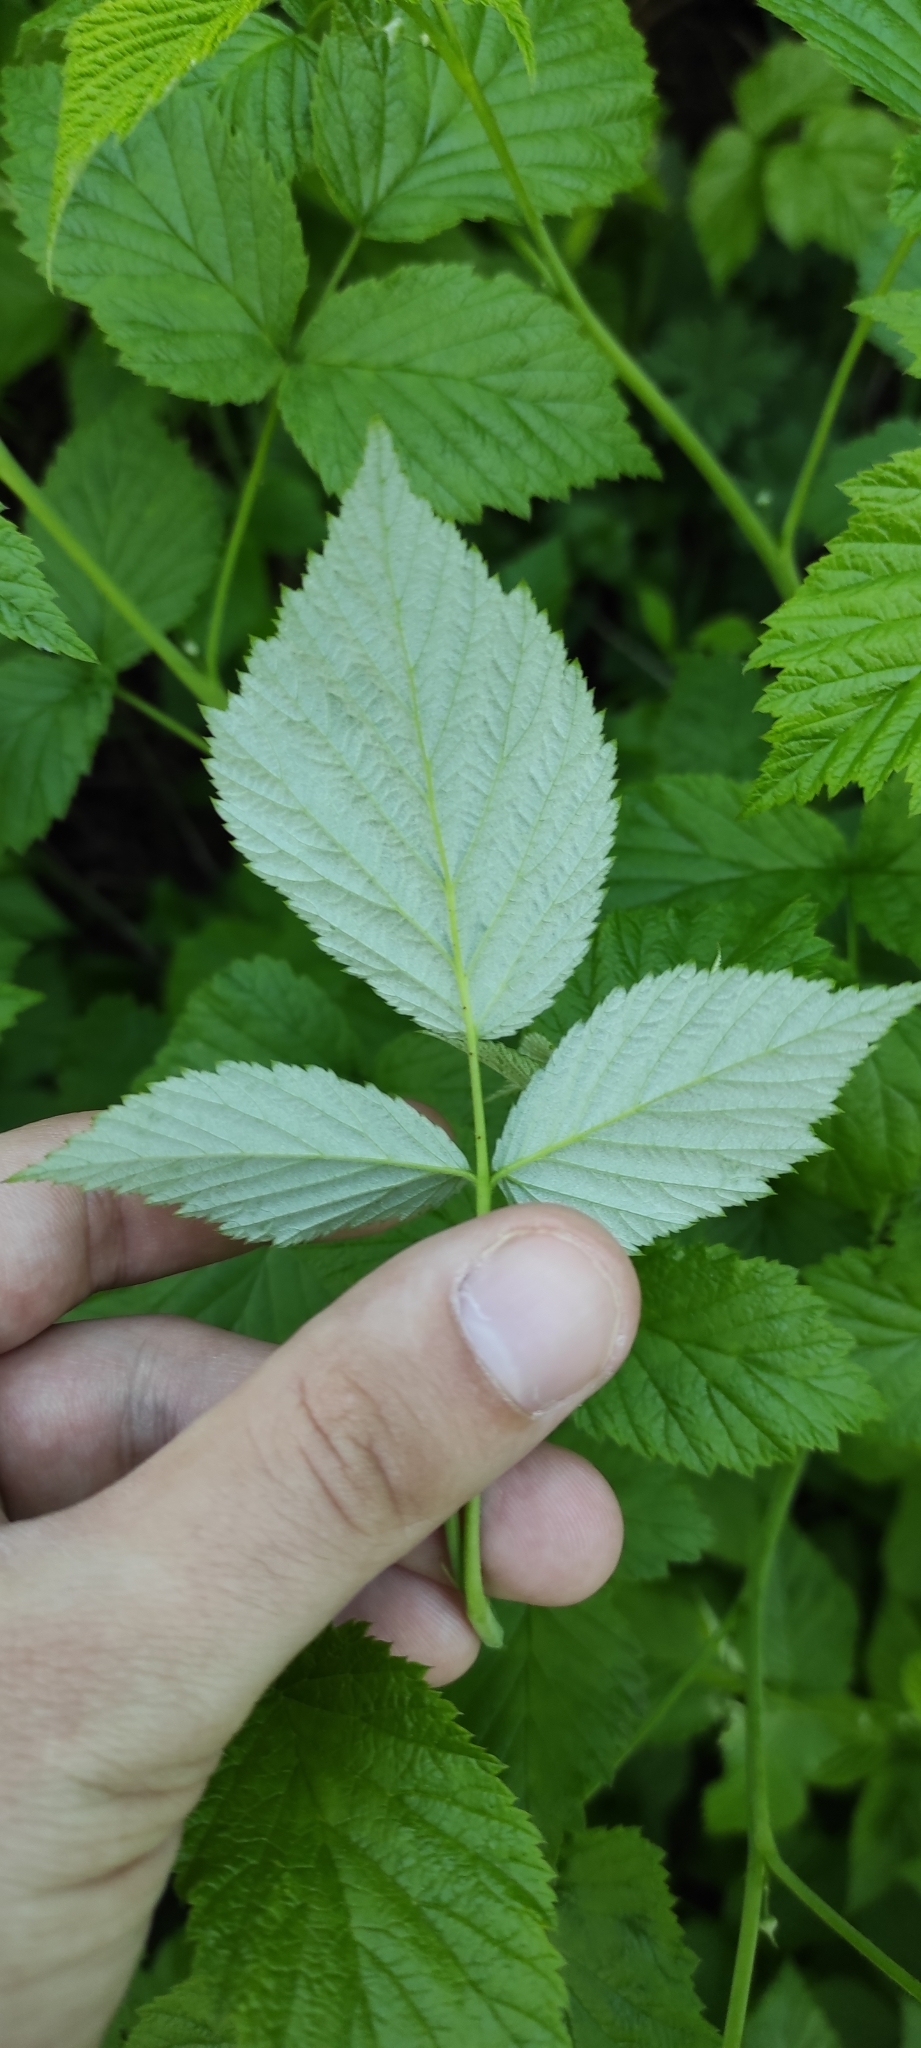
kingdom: Plantae
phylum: Tracheophyta
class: Magnoliopsida
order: Rosales
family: Rosaceae
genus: Rubus
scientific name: Rubus idaeus
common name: Raspberry
